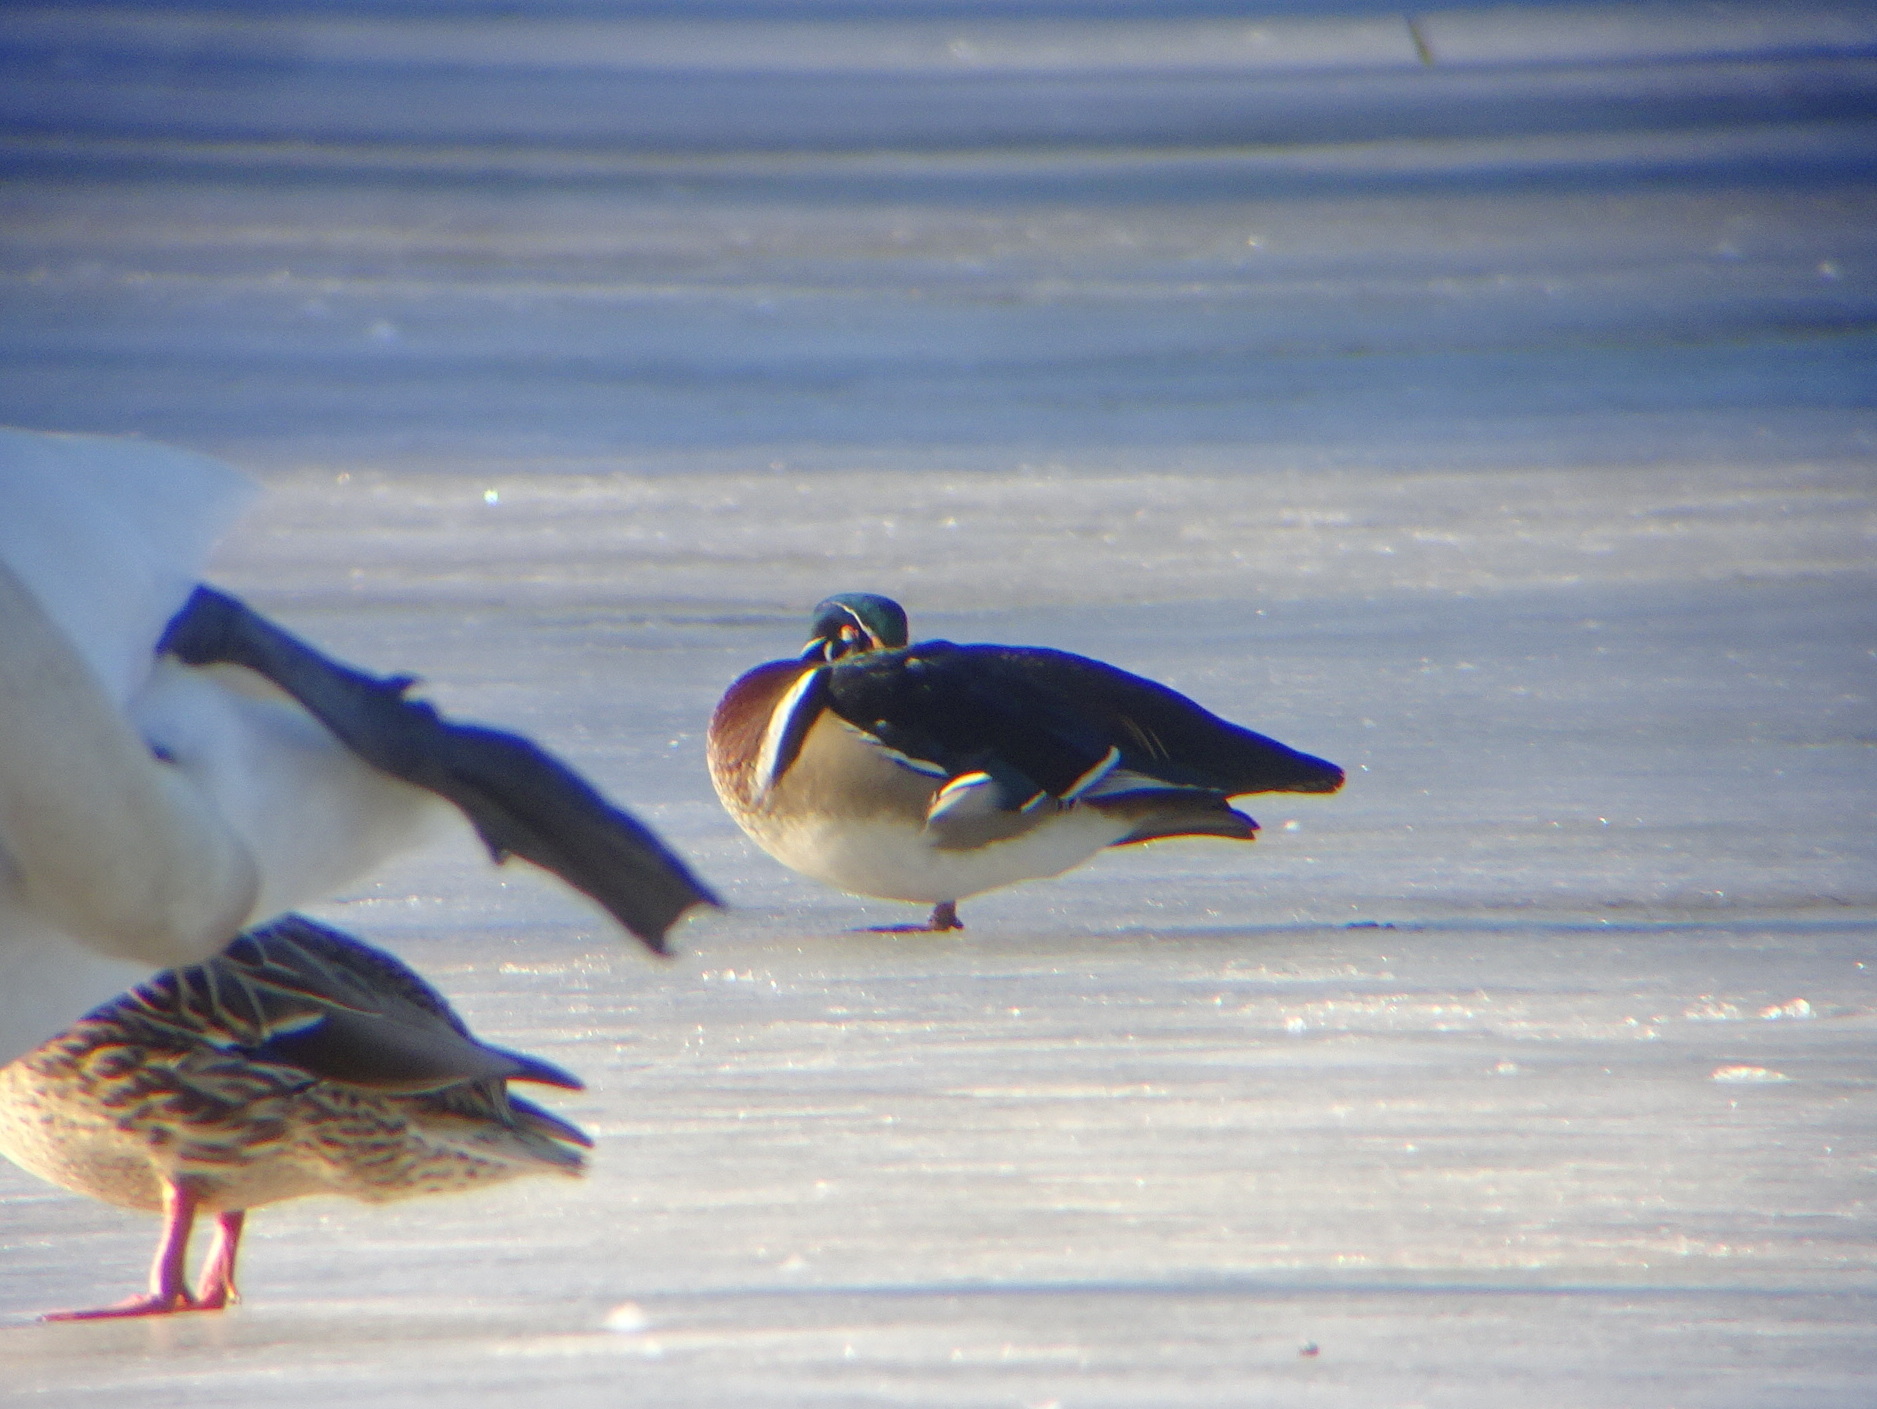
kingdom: Animalia
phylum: Chordata
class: Aves
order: Anseriformes
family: Anatidae
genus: Aix
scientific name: Aix sponsa
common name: Wood duck
